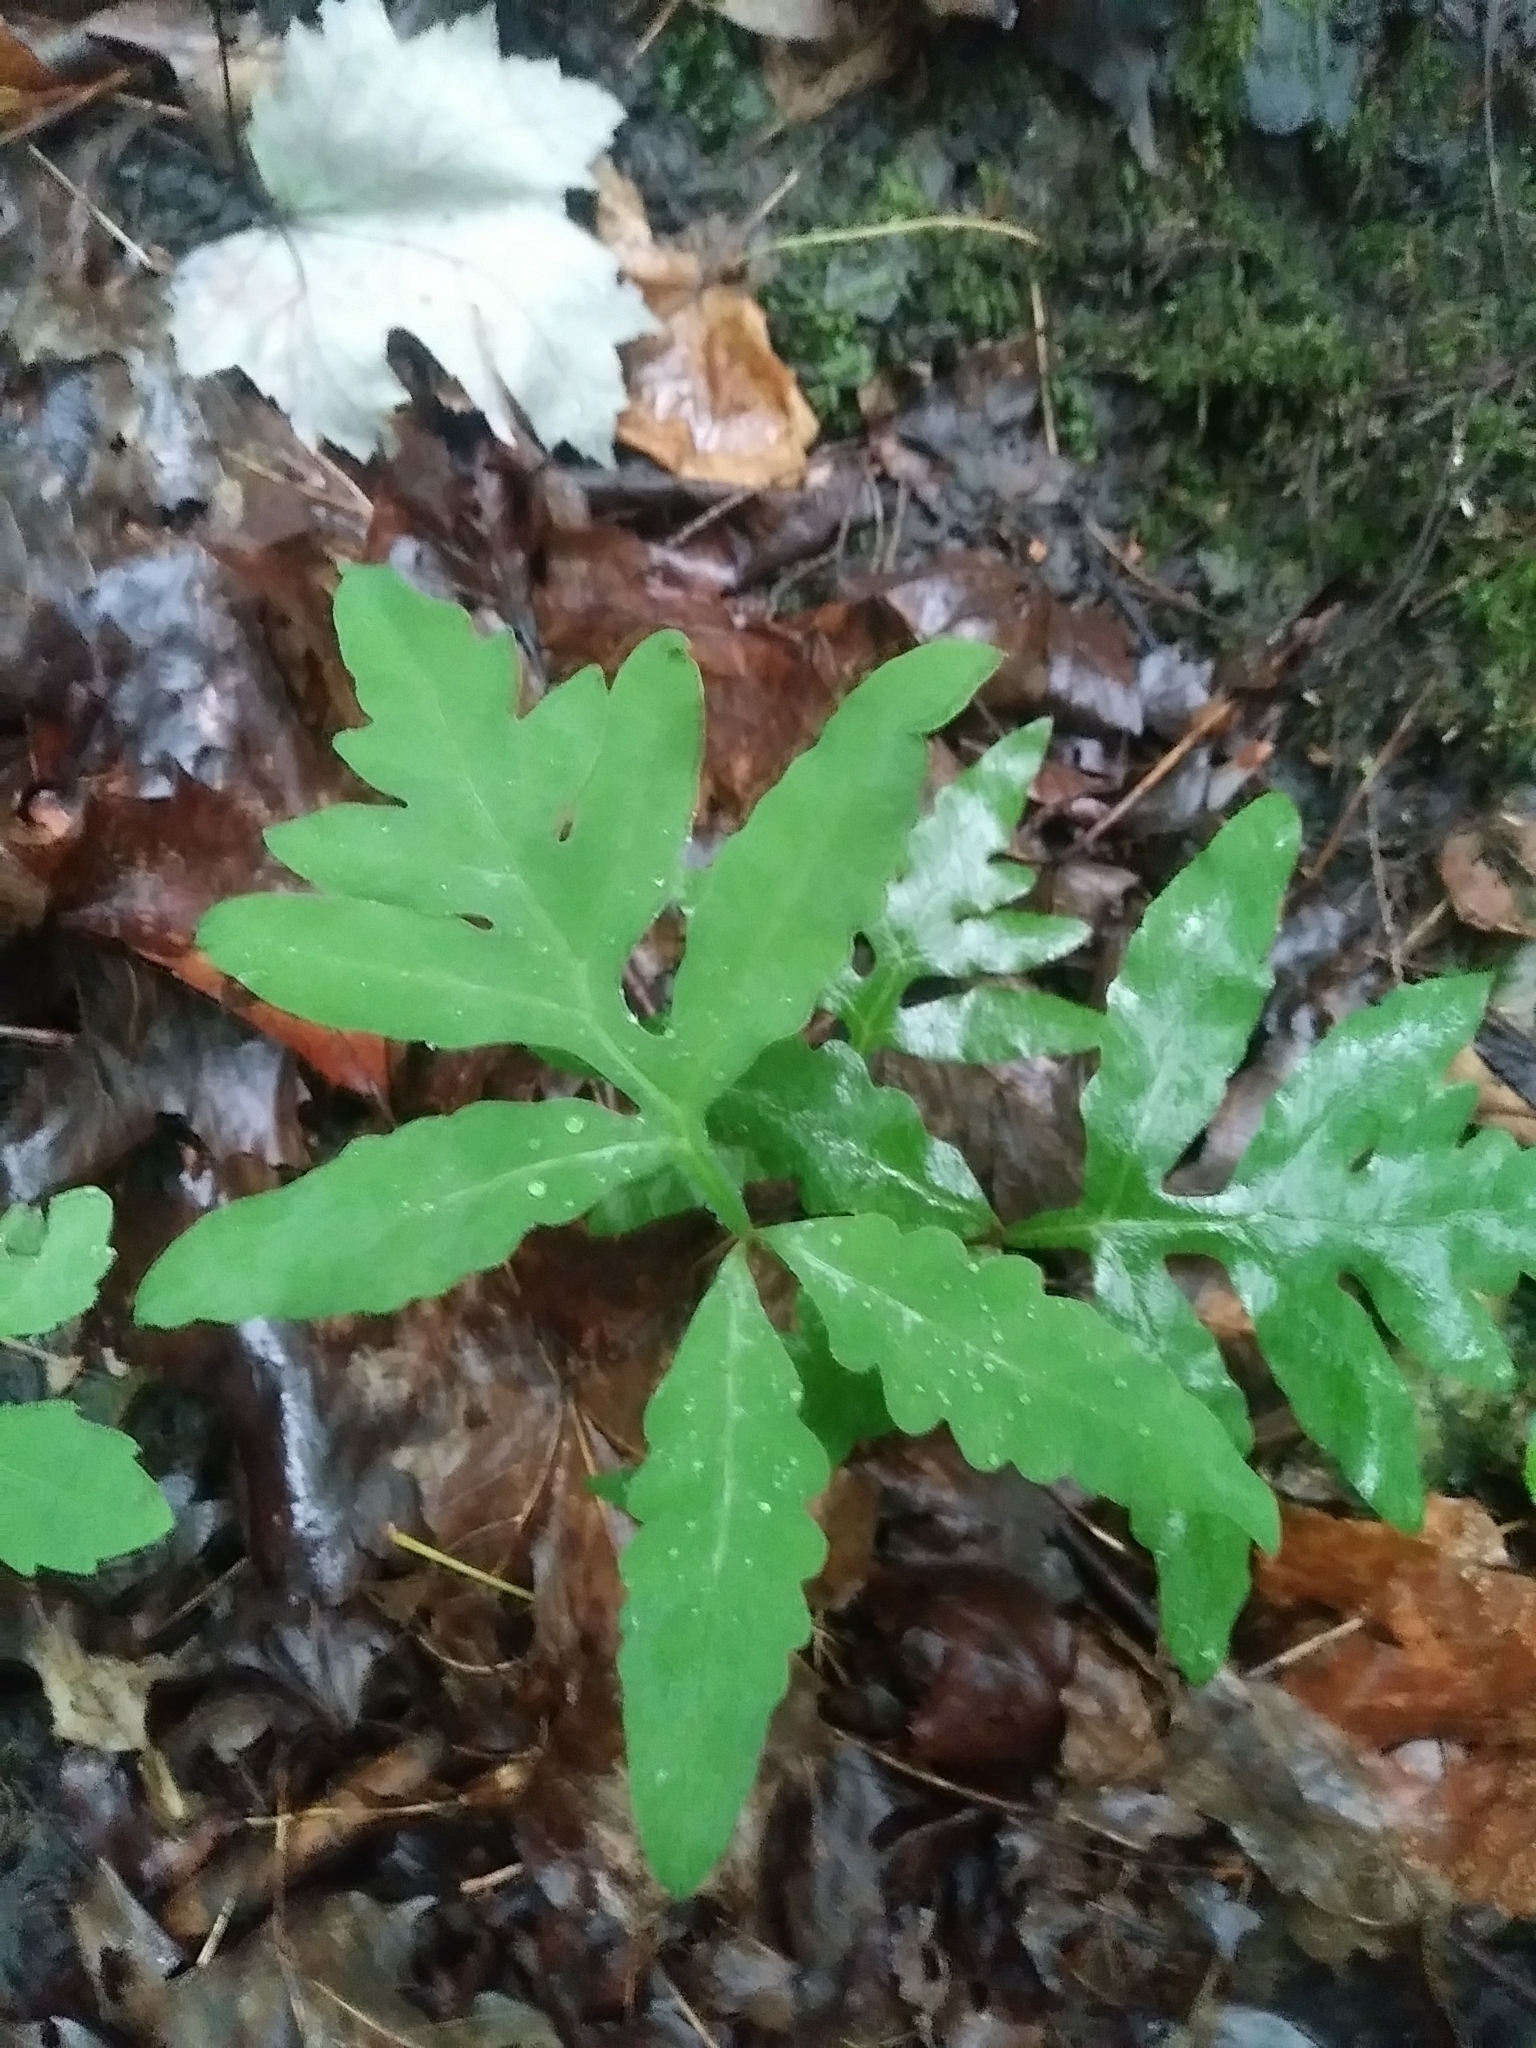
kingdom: Plantae
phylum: Tracheophyta
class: Polypodiopsida
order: Polypodiales
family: Onocleaceae
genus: Onoclea
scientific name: Onoclea sensibilis
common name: Sensitive fern
